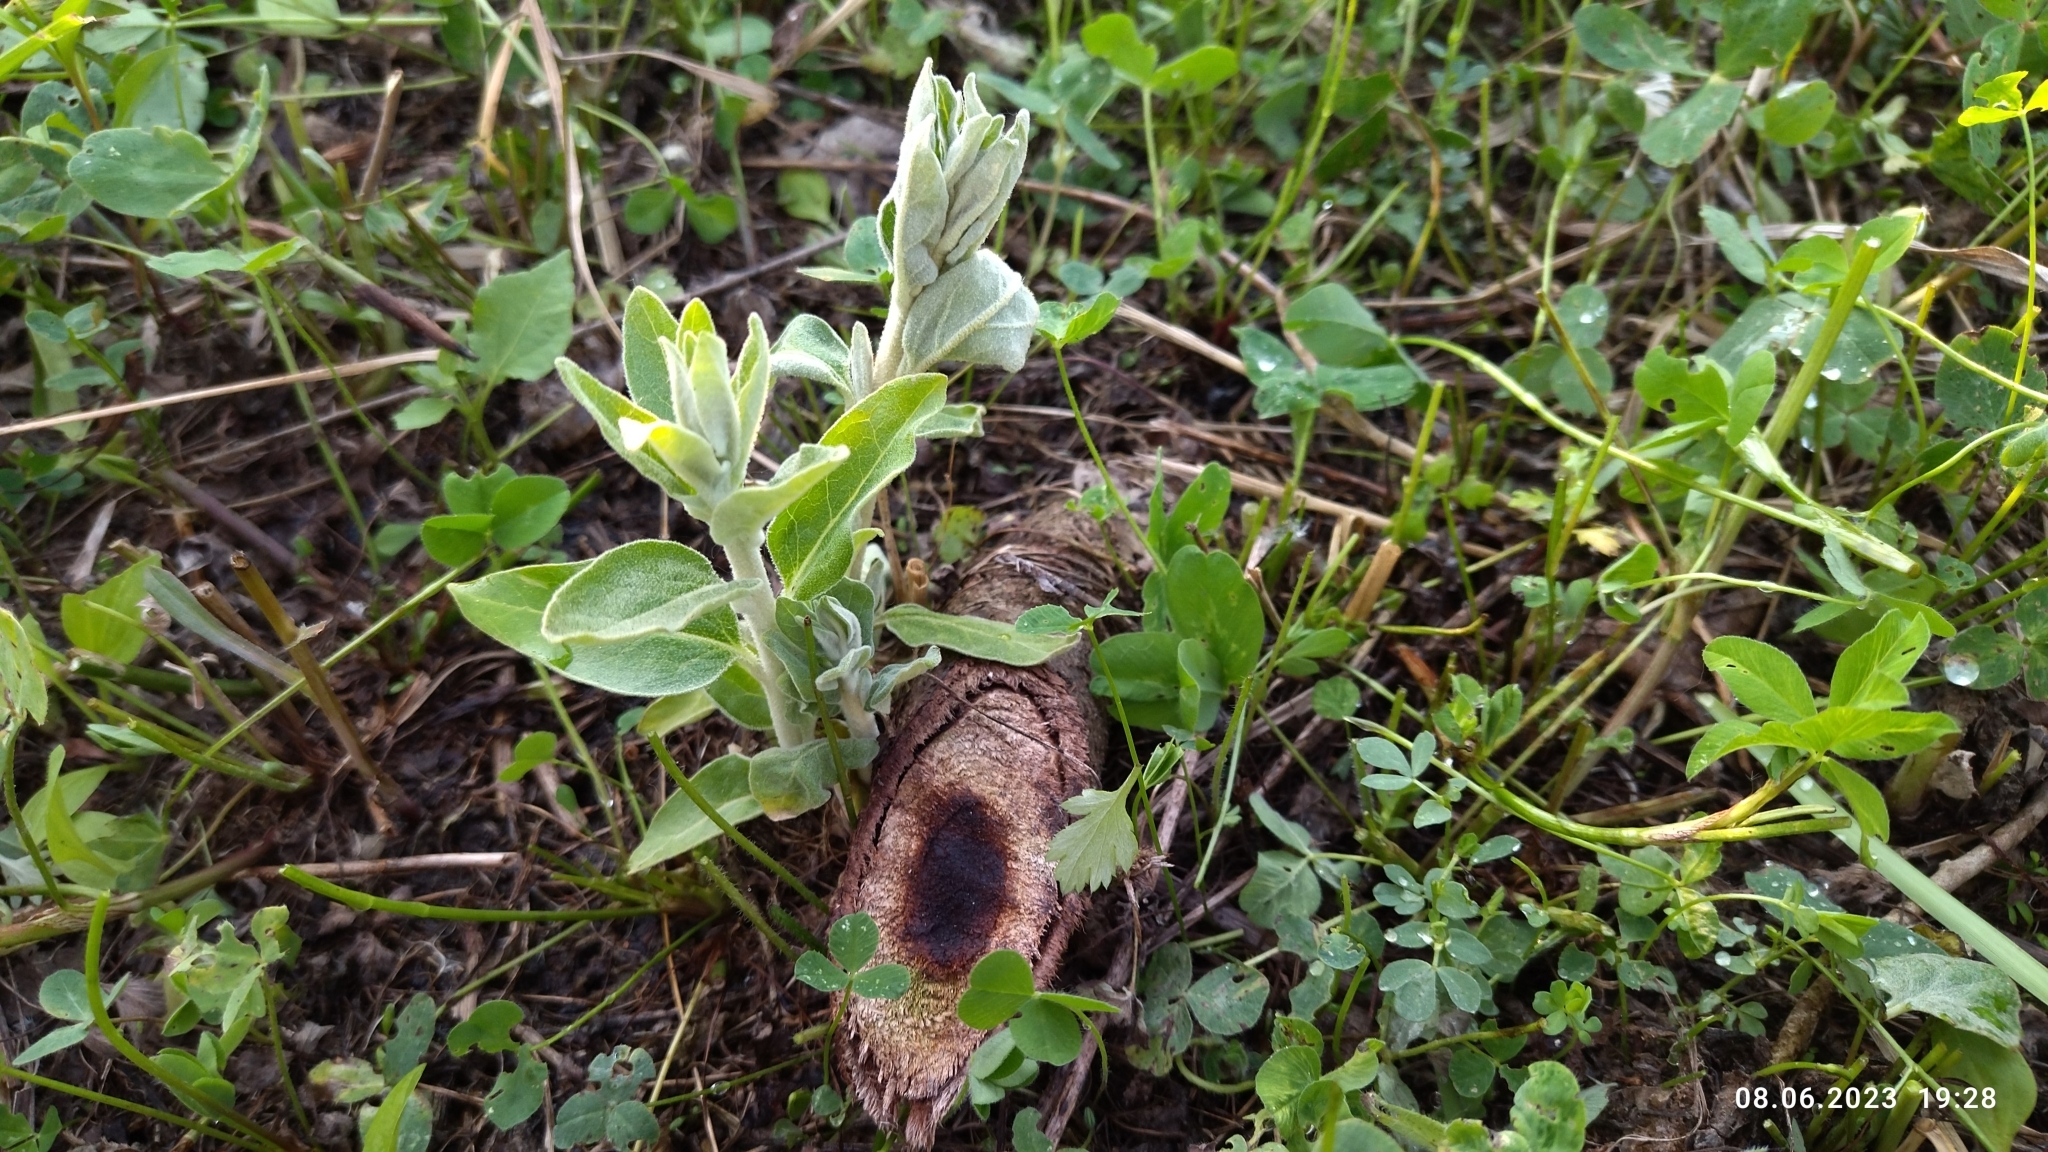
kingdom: Plantae
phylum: Tracheophyta
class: Magnoliopsida
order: Rosales
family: Elaeagnaceae
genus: Elaeagnus
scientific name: Elaeagnus angustifolia
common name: Russian olive
